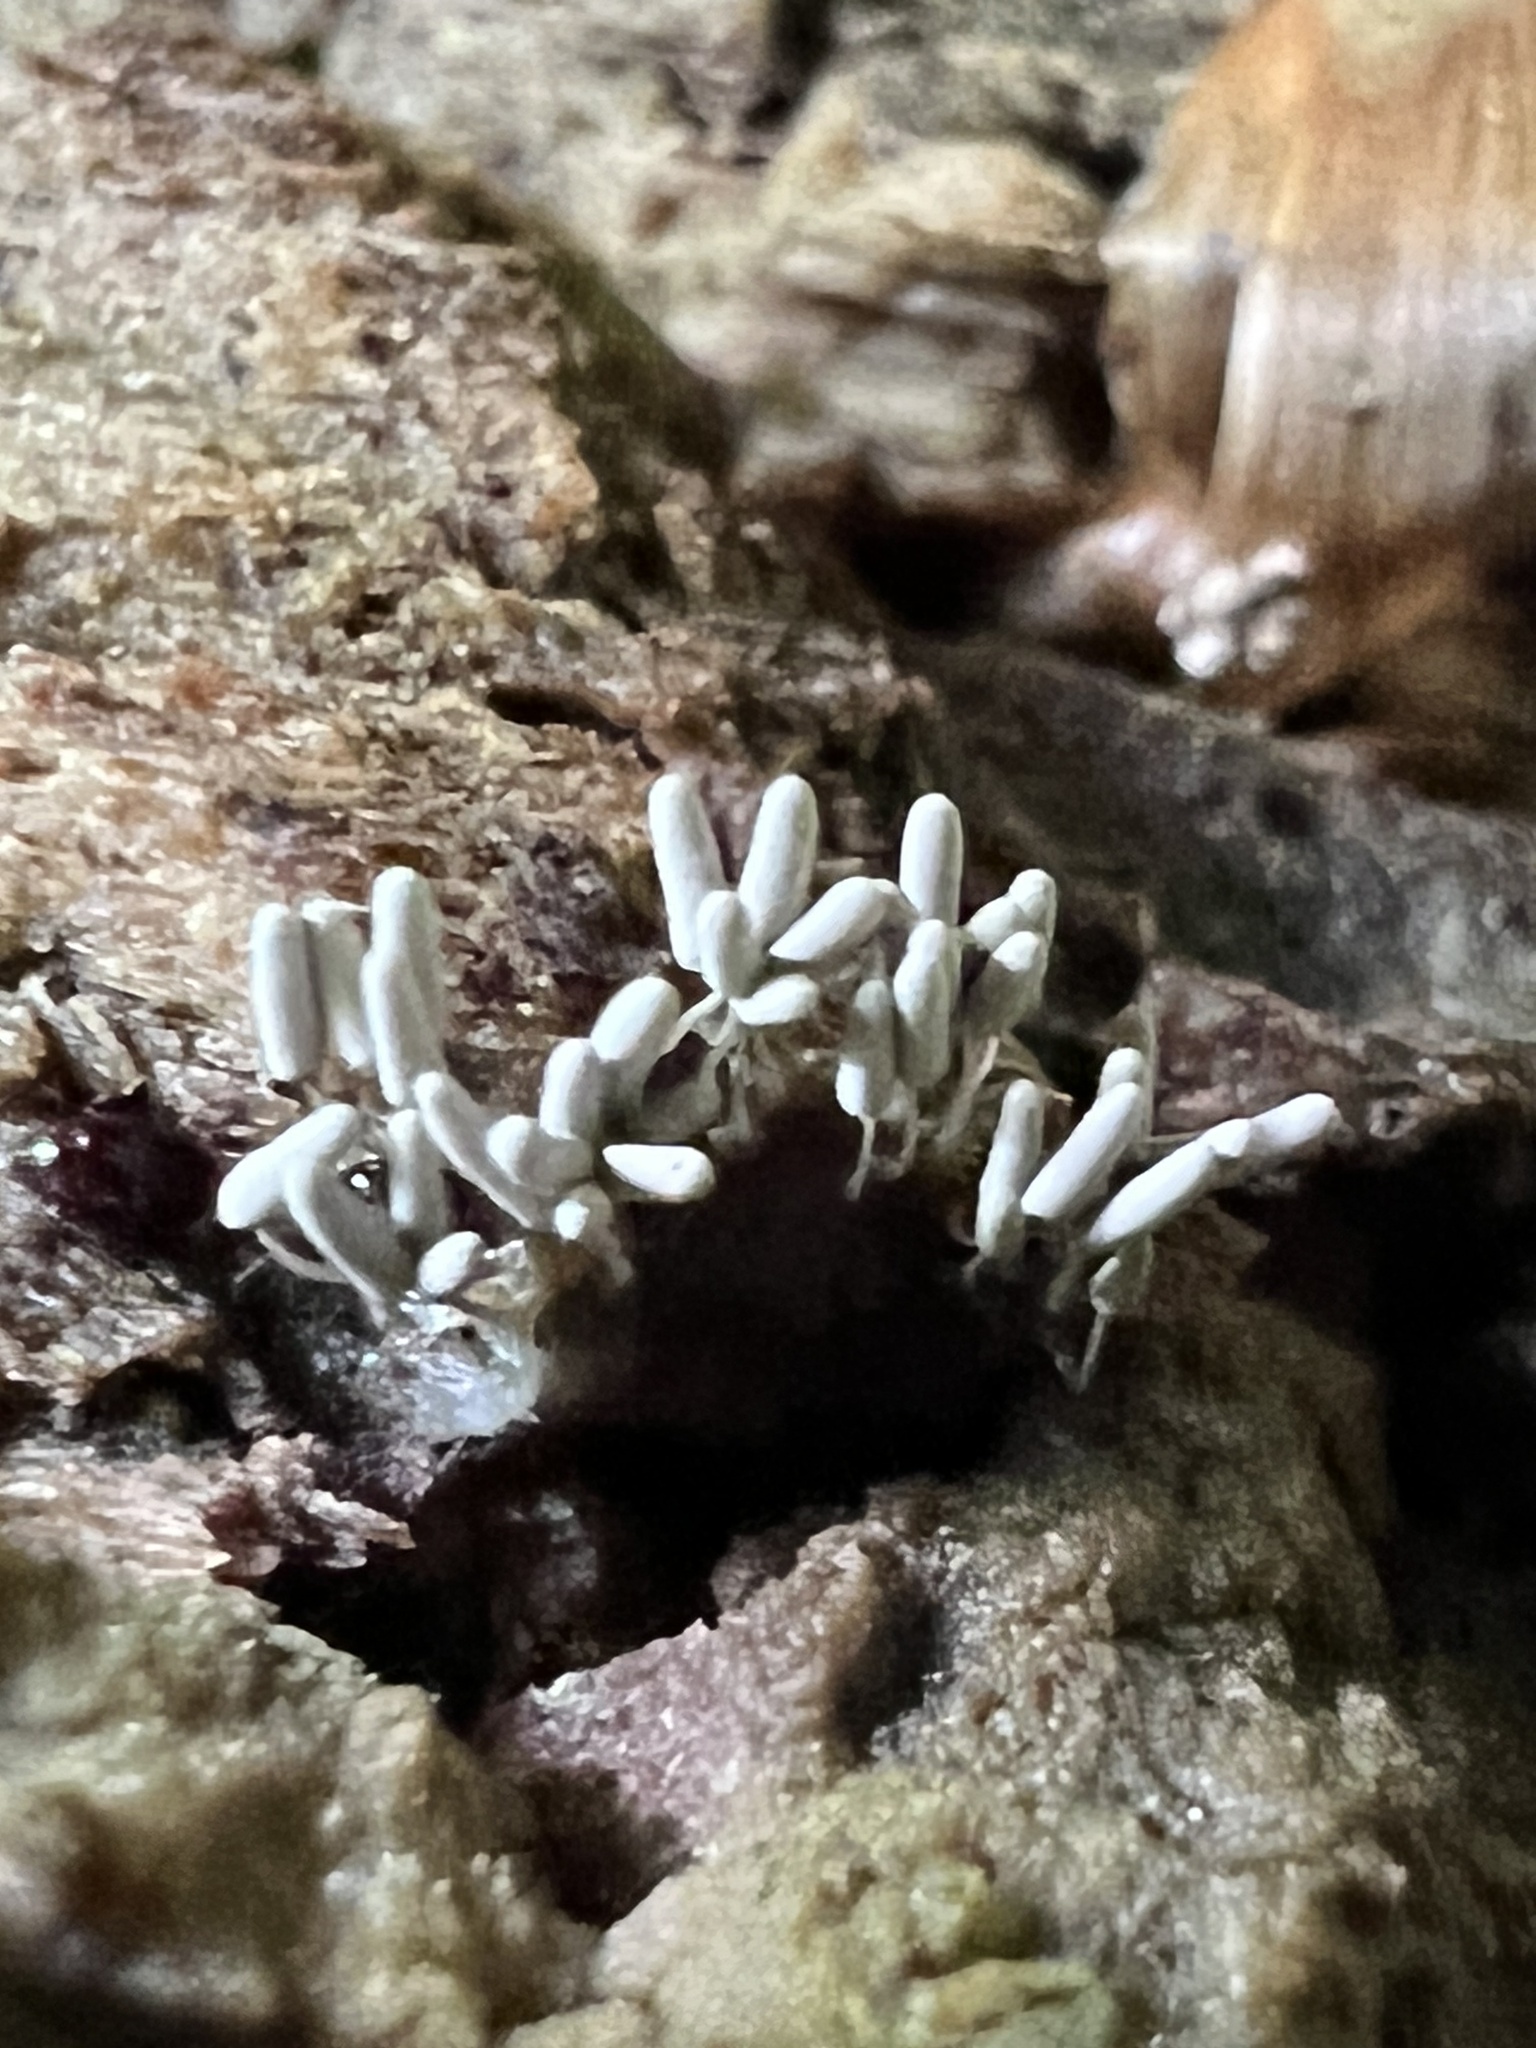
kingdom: Protozoa
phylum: Mycetozoa
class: Myxomycetes
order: Trichiales
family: Arcyriaceae
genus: Arcyria
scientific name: Arcyria cinerea
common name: White carnival candy slime mold
